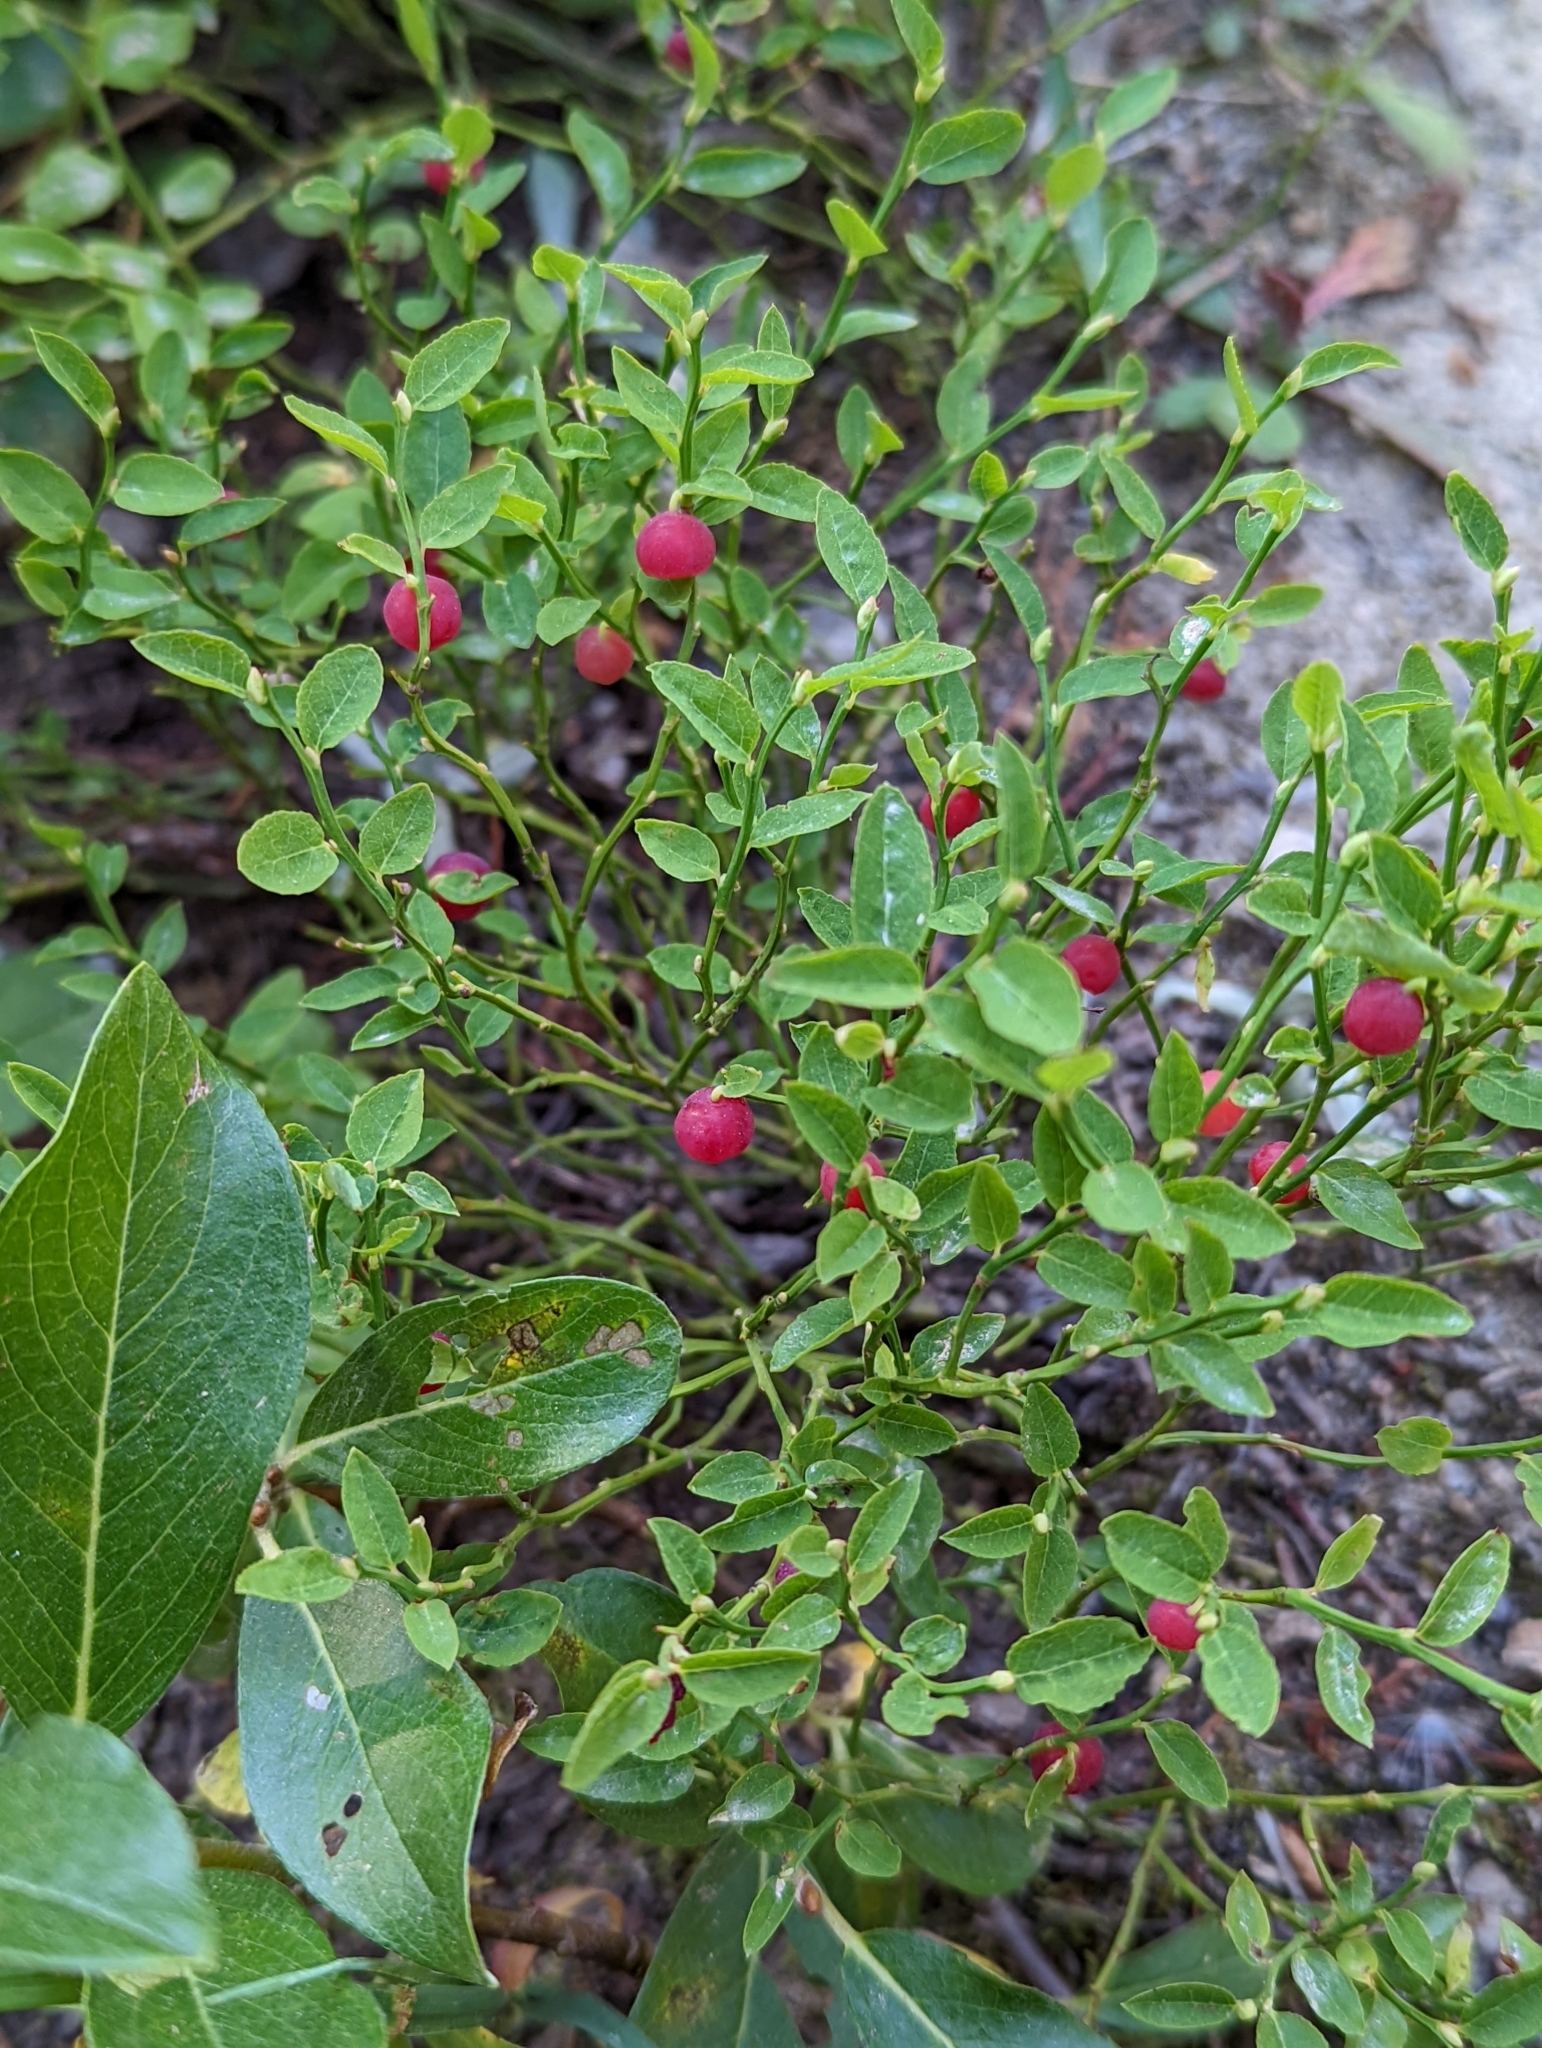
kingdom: Plantae
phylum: Tracheophyta
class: Magnoliopsida
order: Ericales
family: Ericaceae
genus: Vaccinium
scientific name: Vaccinium scoparium
